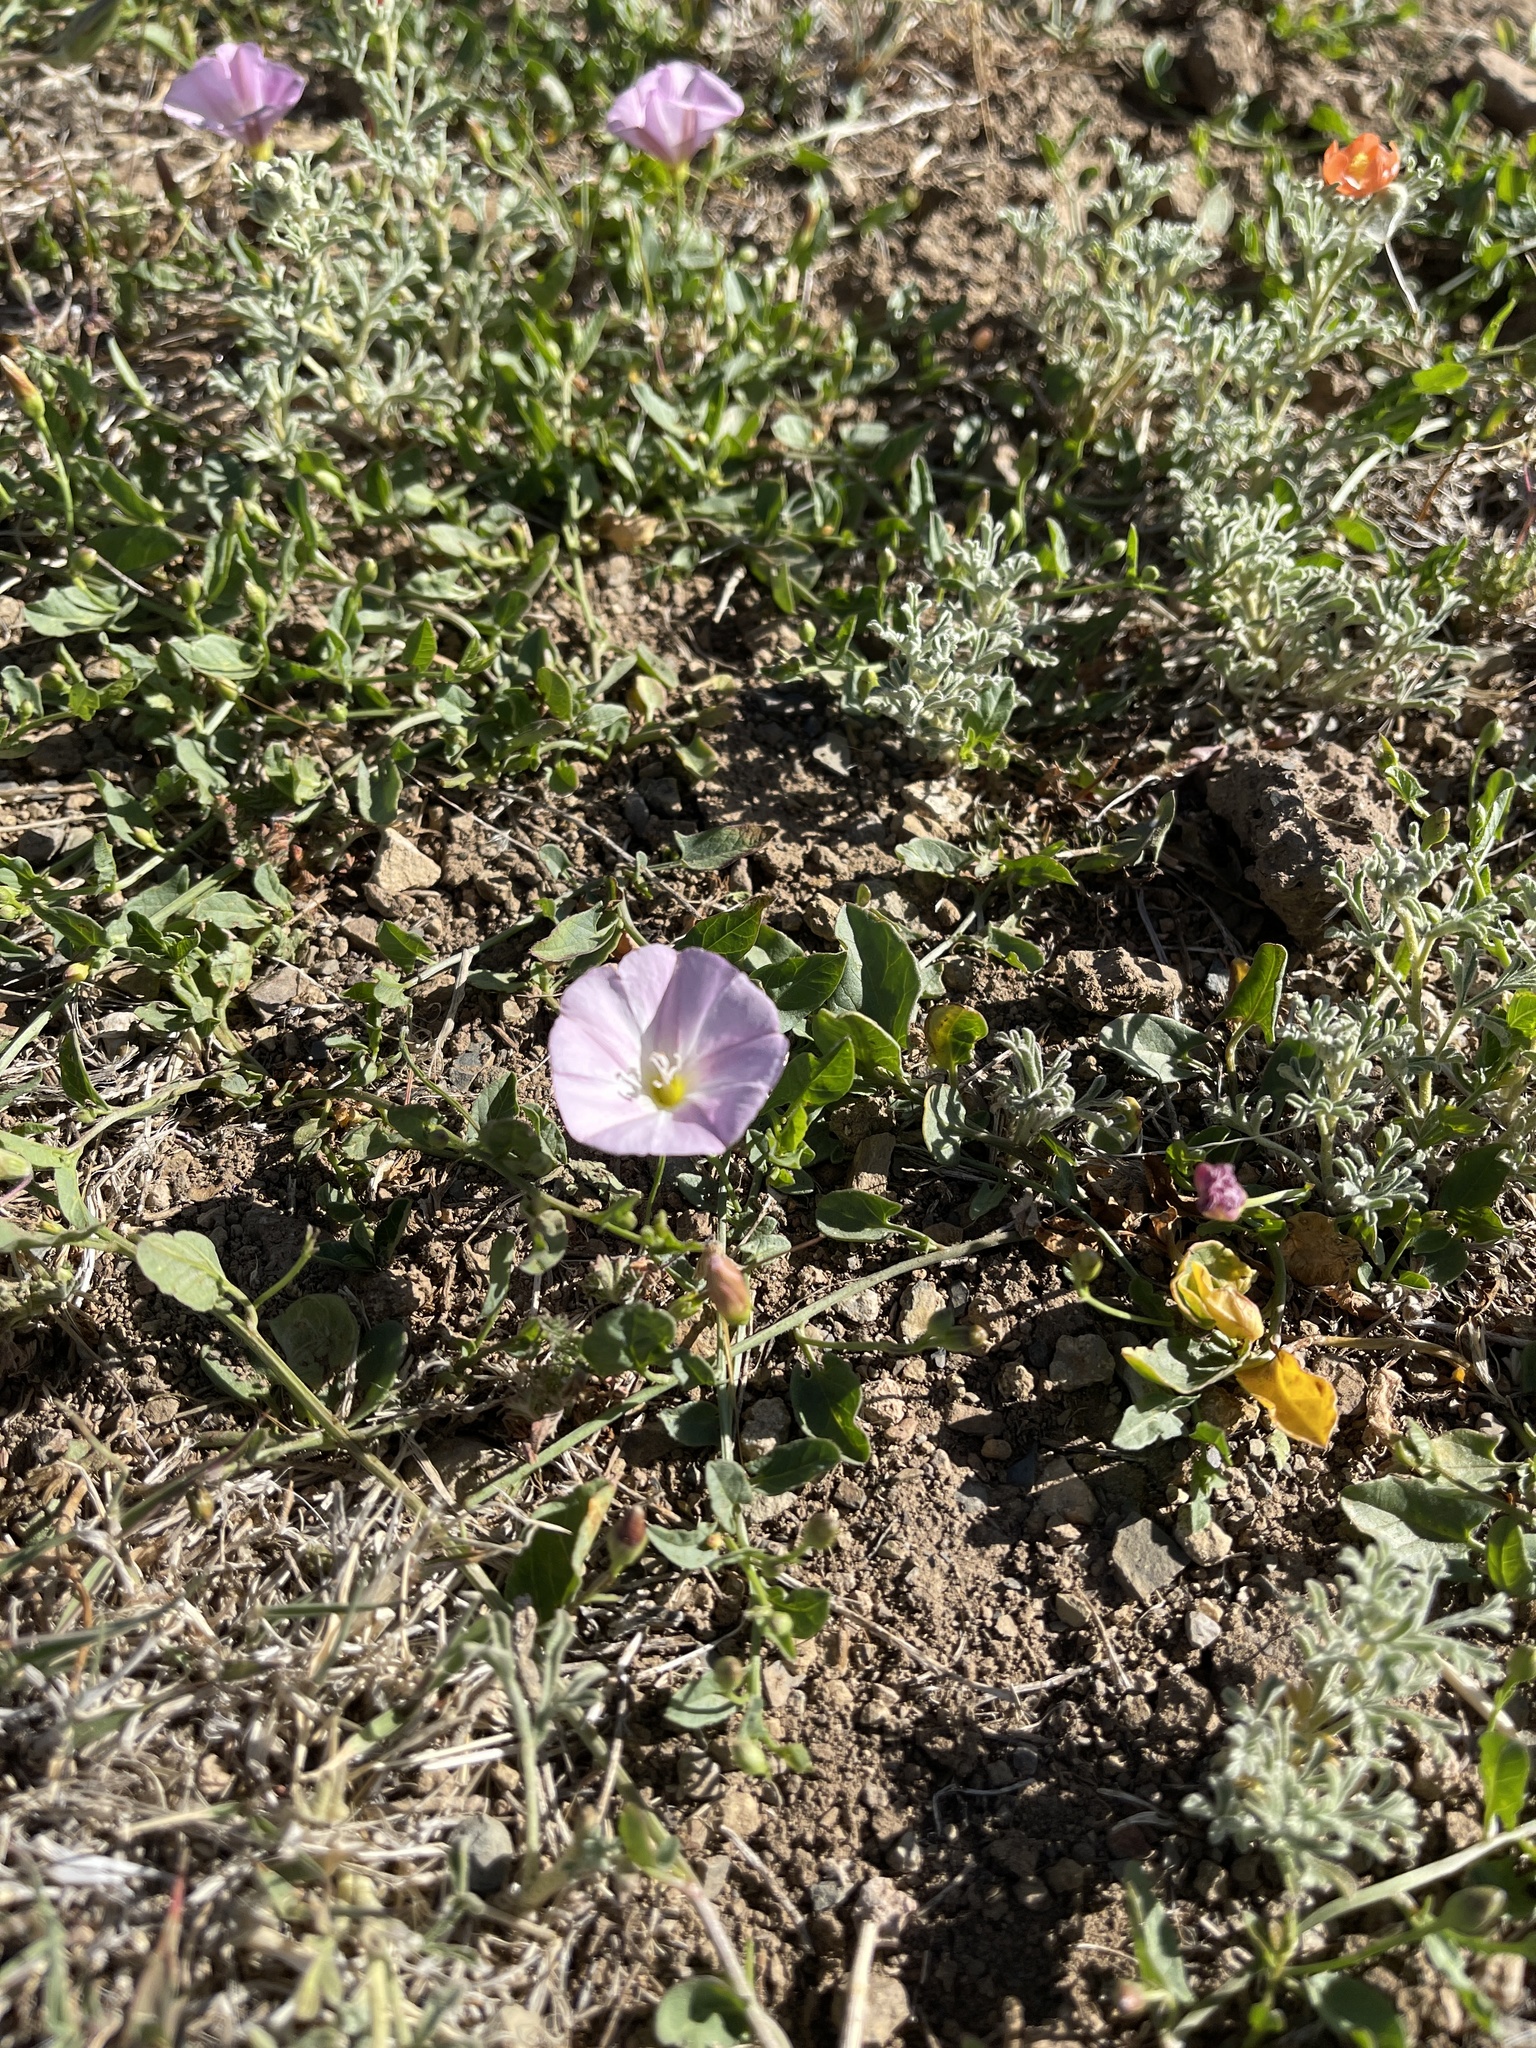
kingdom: Plantae
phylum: Tracheophyta
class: Magnoliopsida
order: Solanales
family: Convolvulaceae
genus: Convolvulus
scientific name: Convolvulus arvensis
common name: Field bindweed
